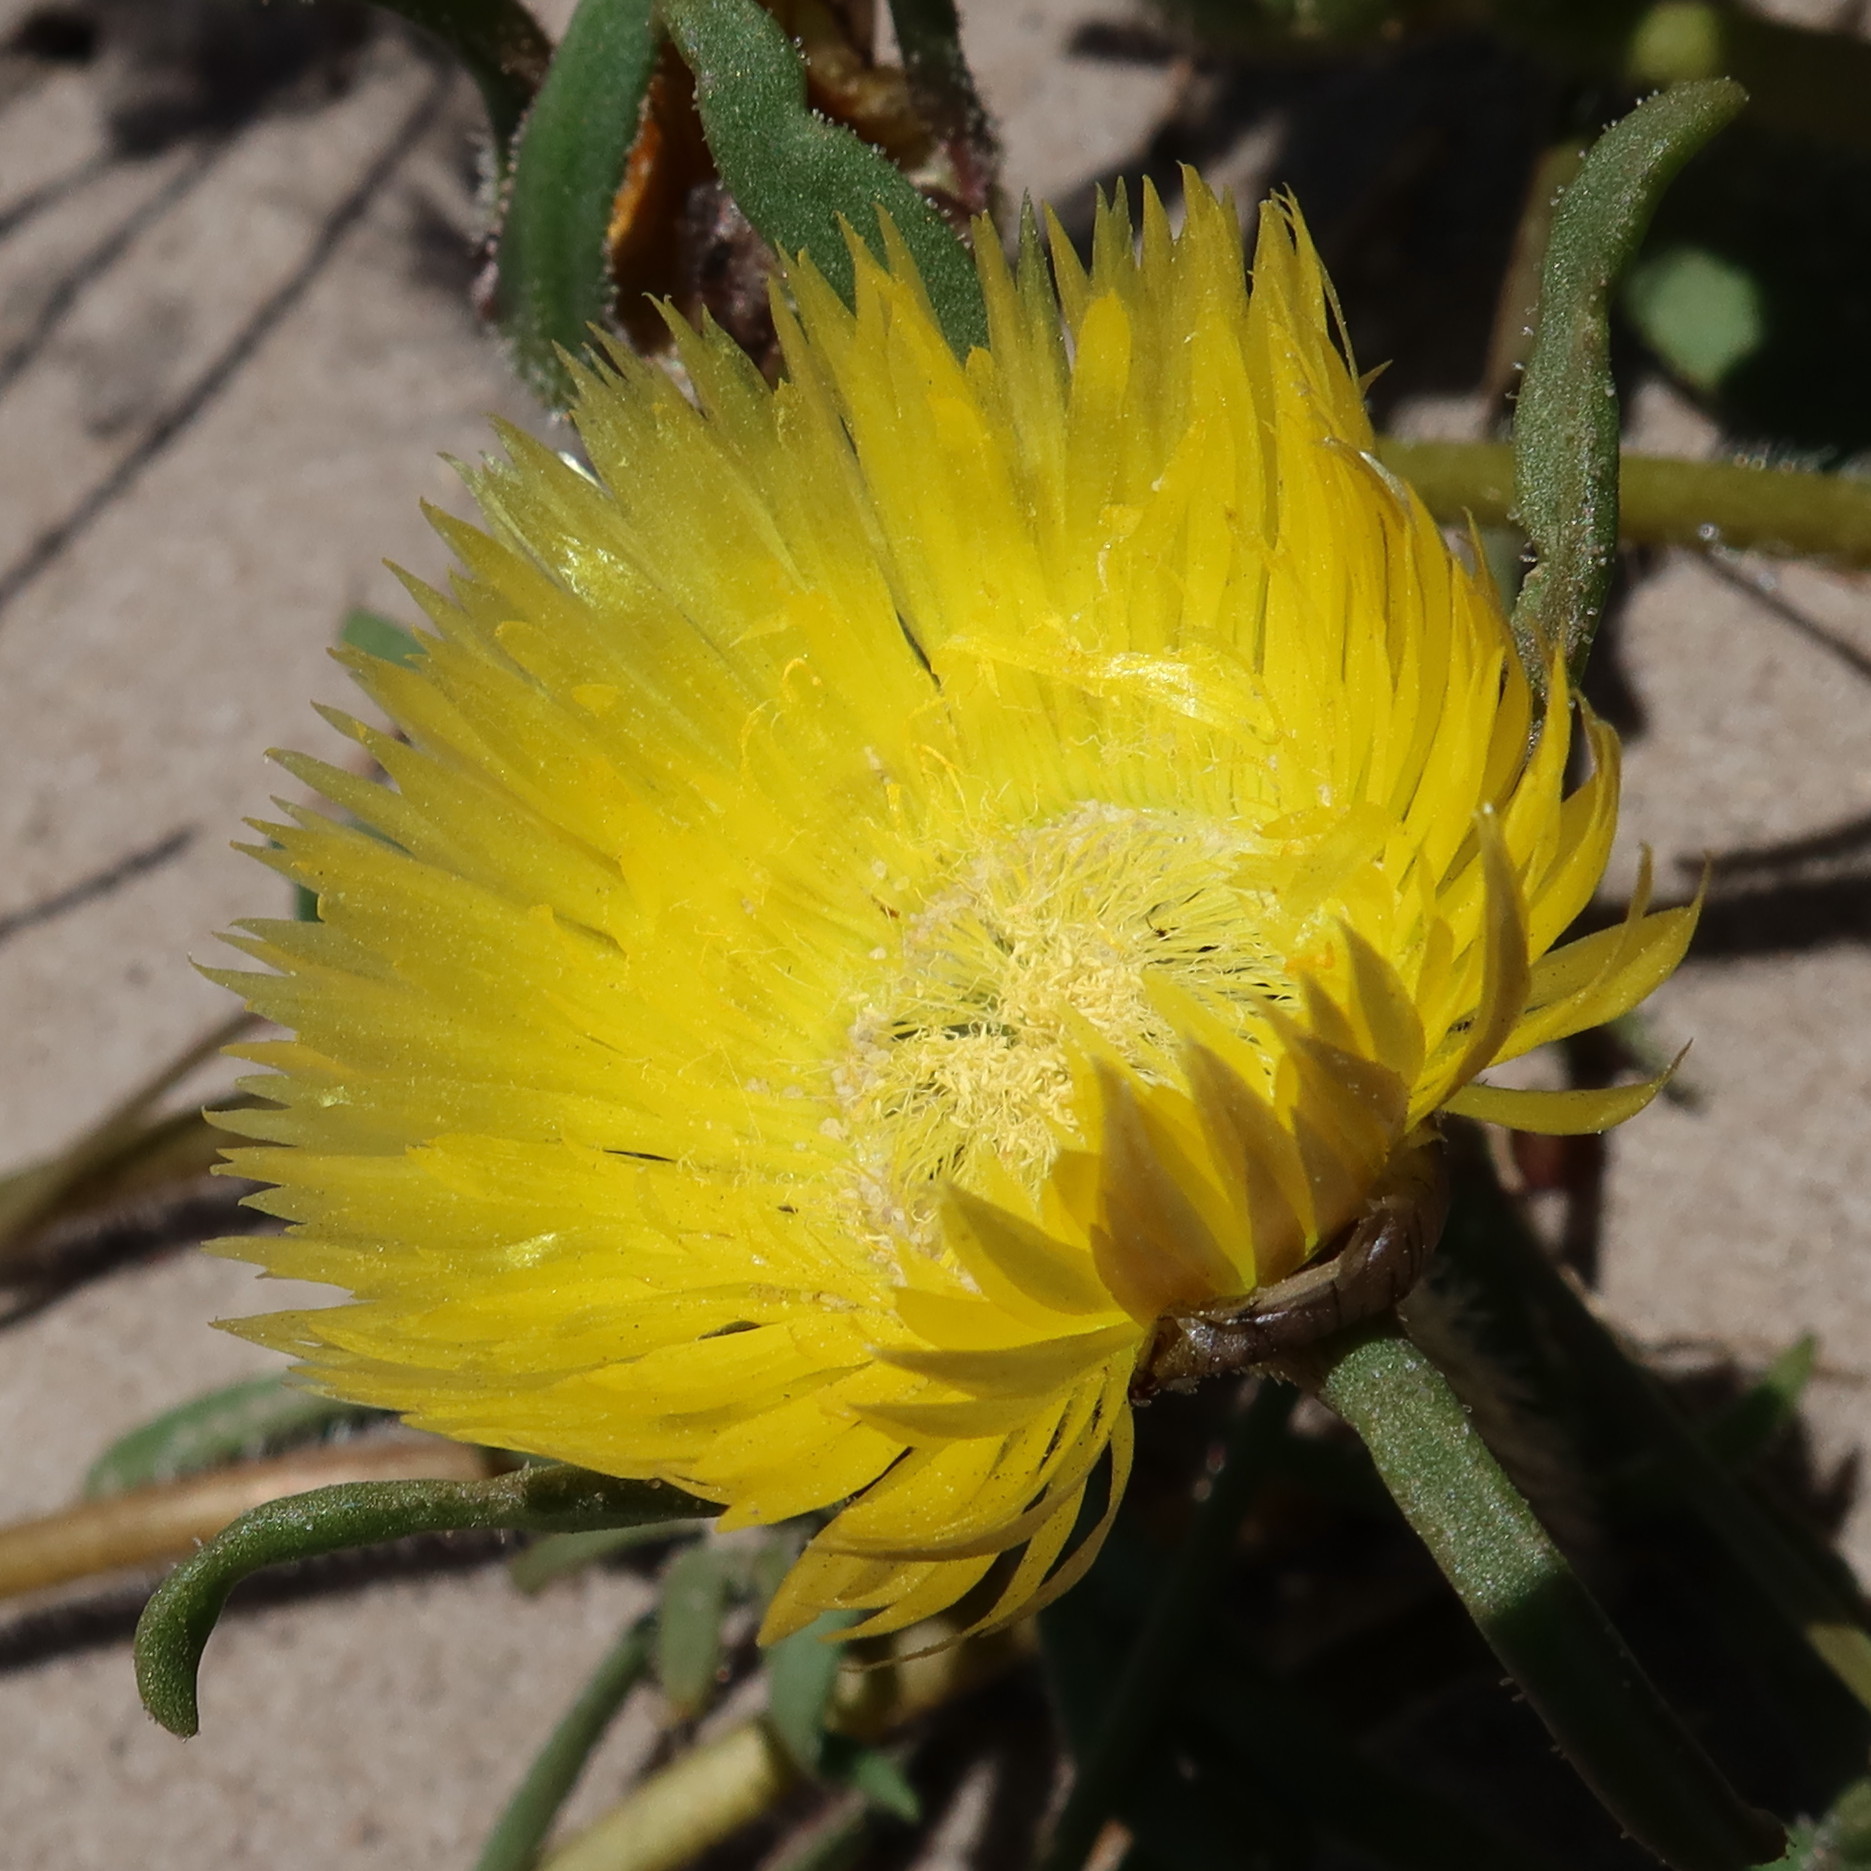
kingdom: Plantae
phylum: Tracheophyta
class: Magnoliopsida
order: Caryophyllales
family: Aizoaceae
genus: Carpanthea
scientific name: Carpanthea pomeridiana
